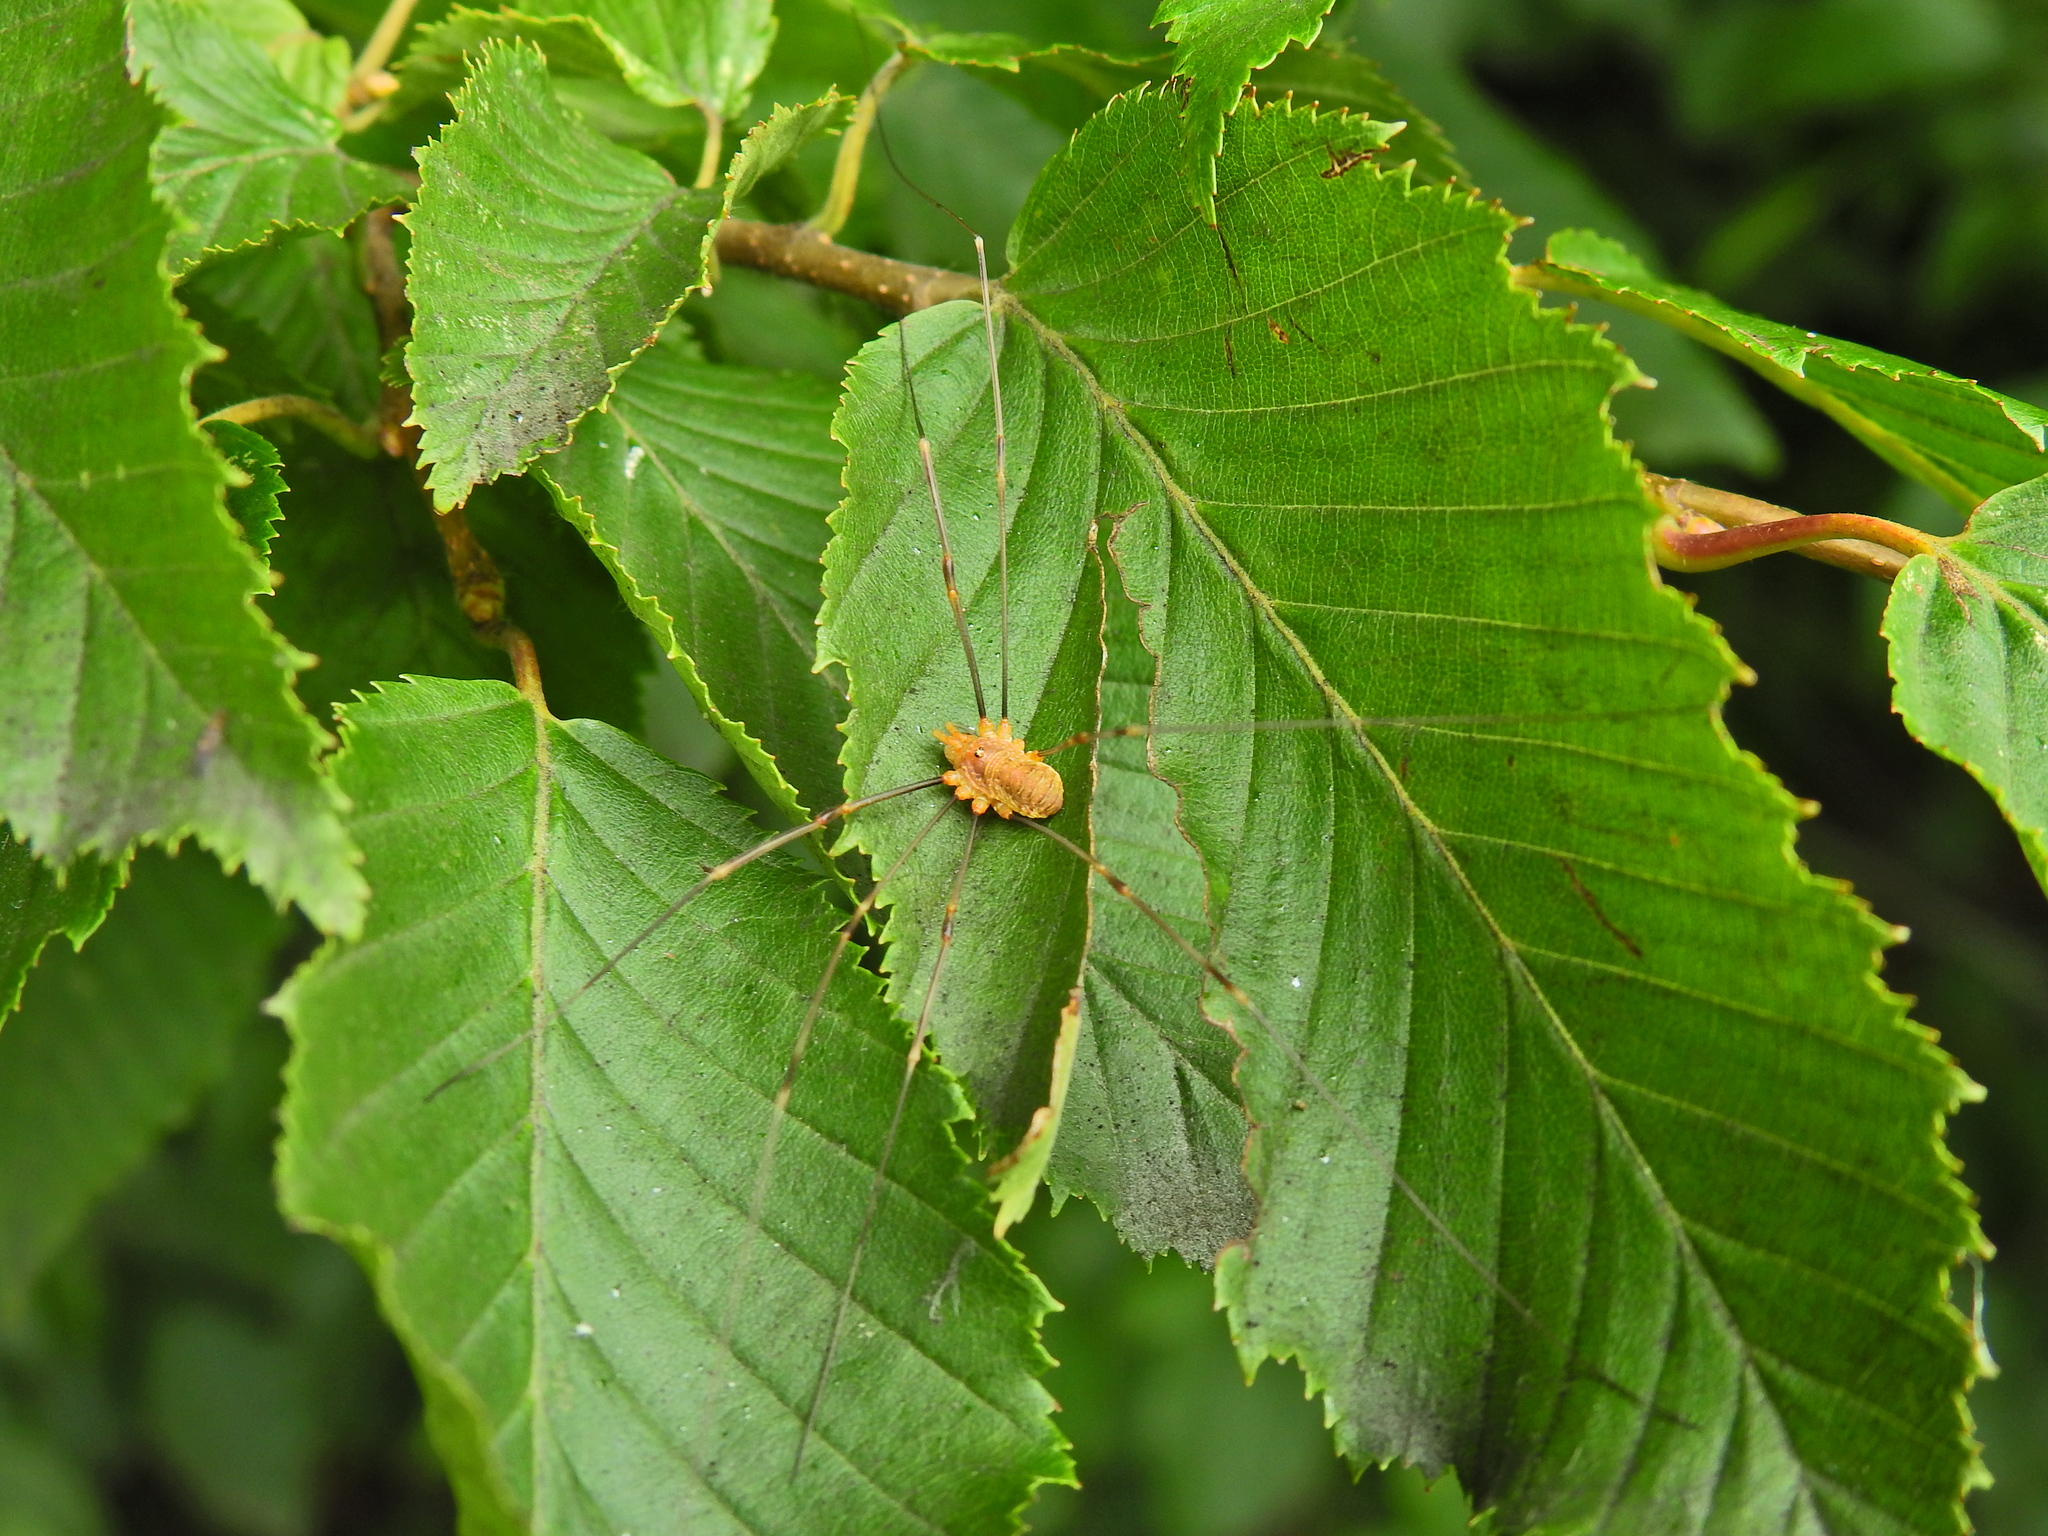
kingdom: Animalia
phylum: Arthropoda
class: Arachnida
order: Opiliones
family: Phalangiidae
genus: Opilio
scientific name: Opilio canestrinii
